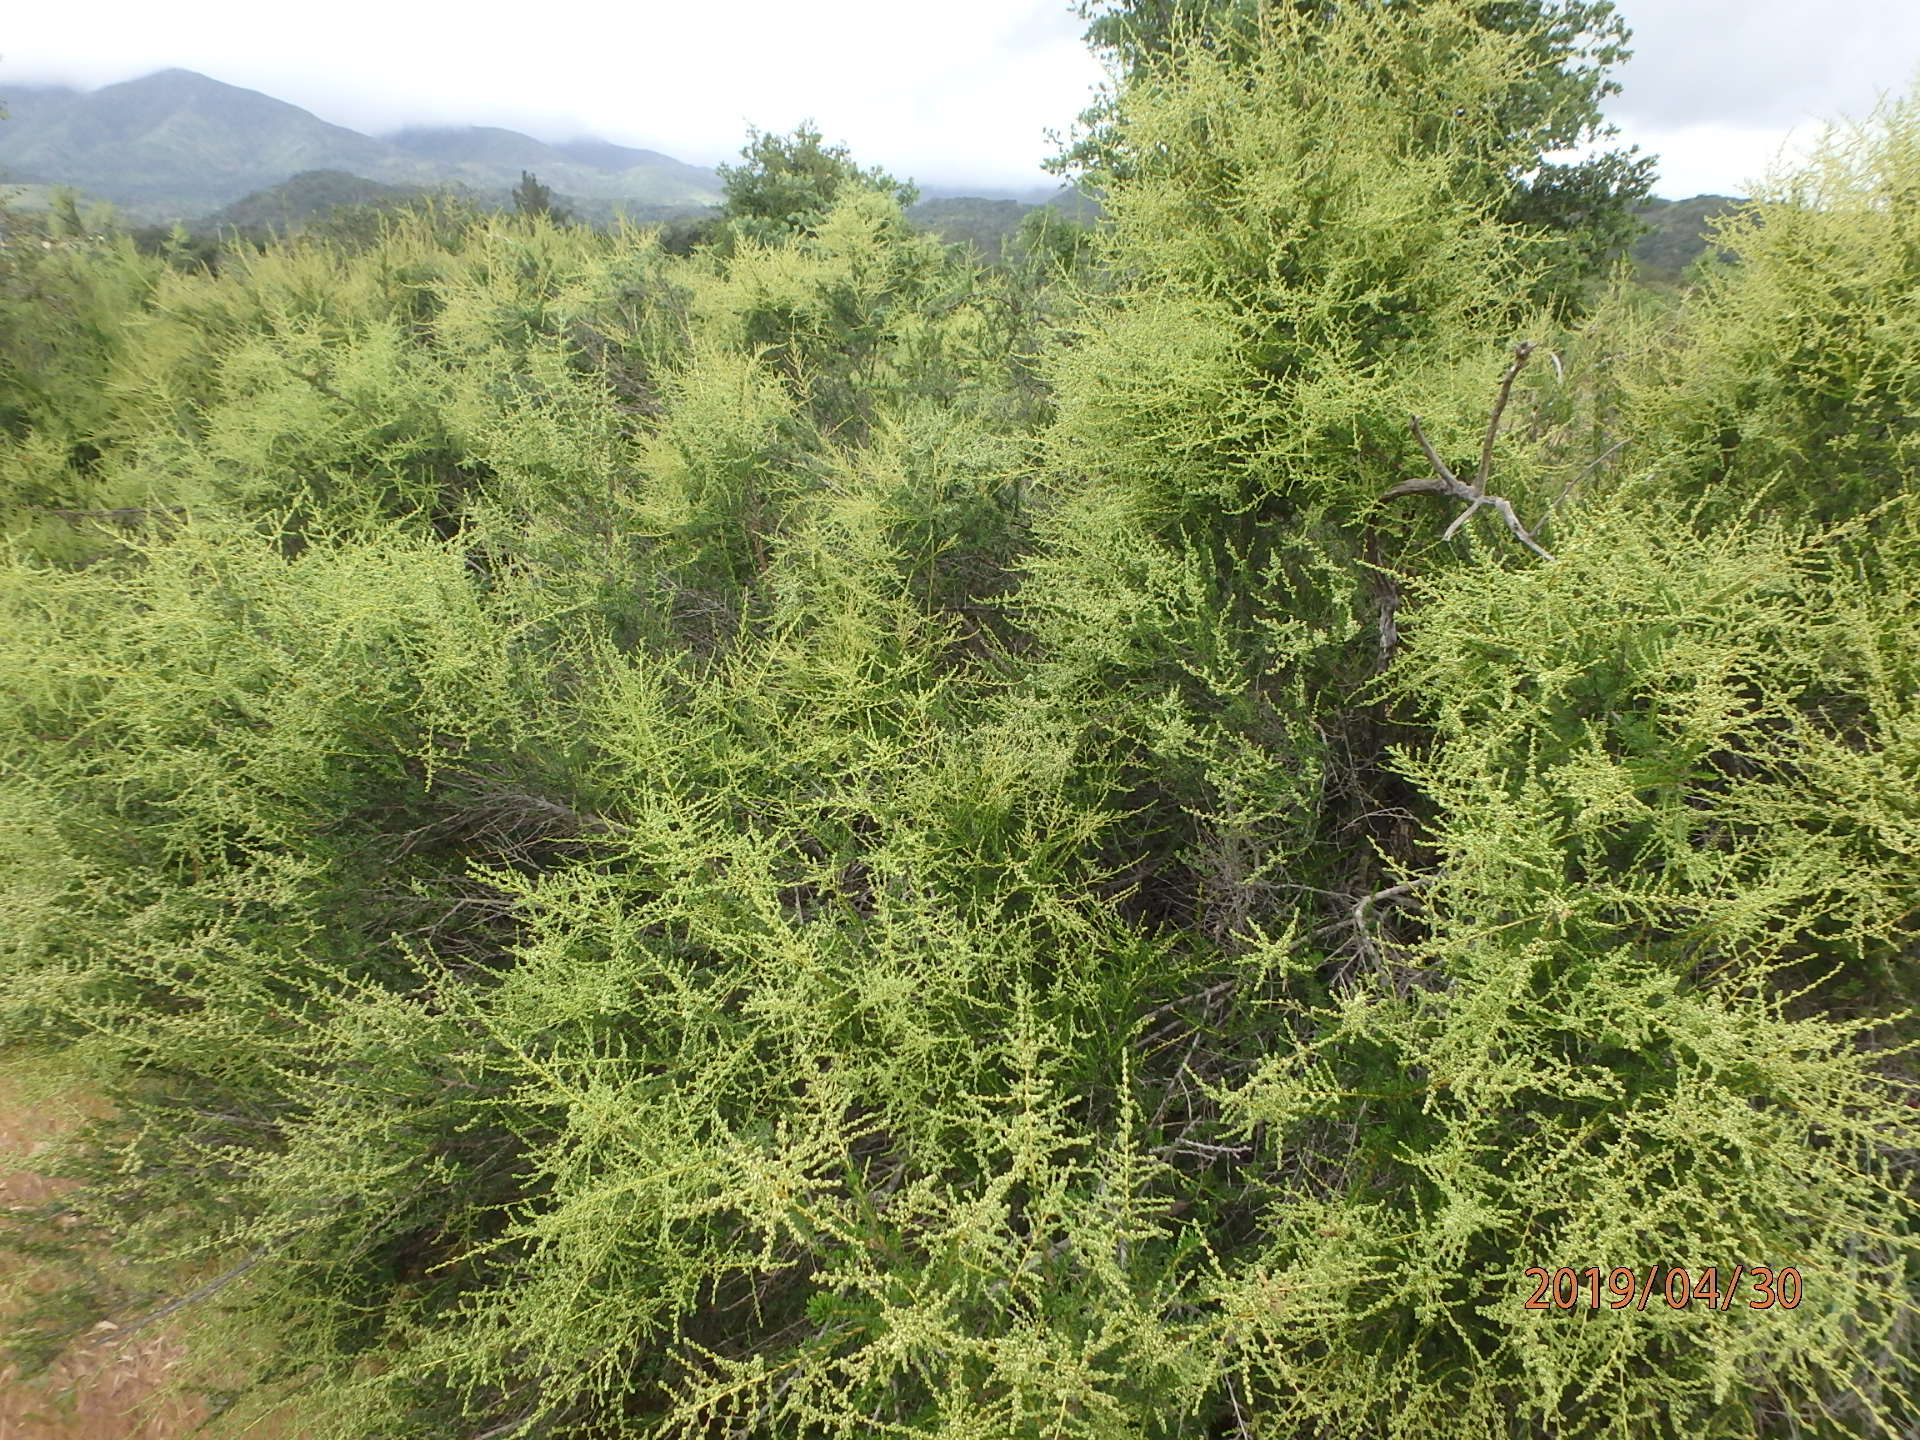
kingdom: Plantae
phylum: Tracheophyta
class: Magnoliopsida
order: Rosales
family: Rosaceae
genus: Adenostoma
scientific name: Adenostoma fasciculatum
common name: Chamise
